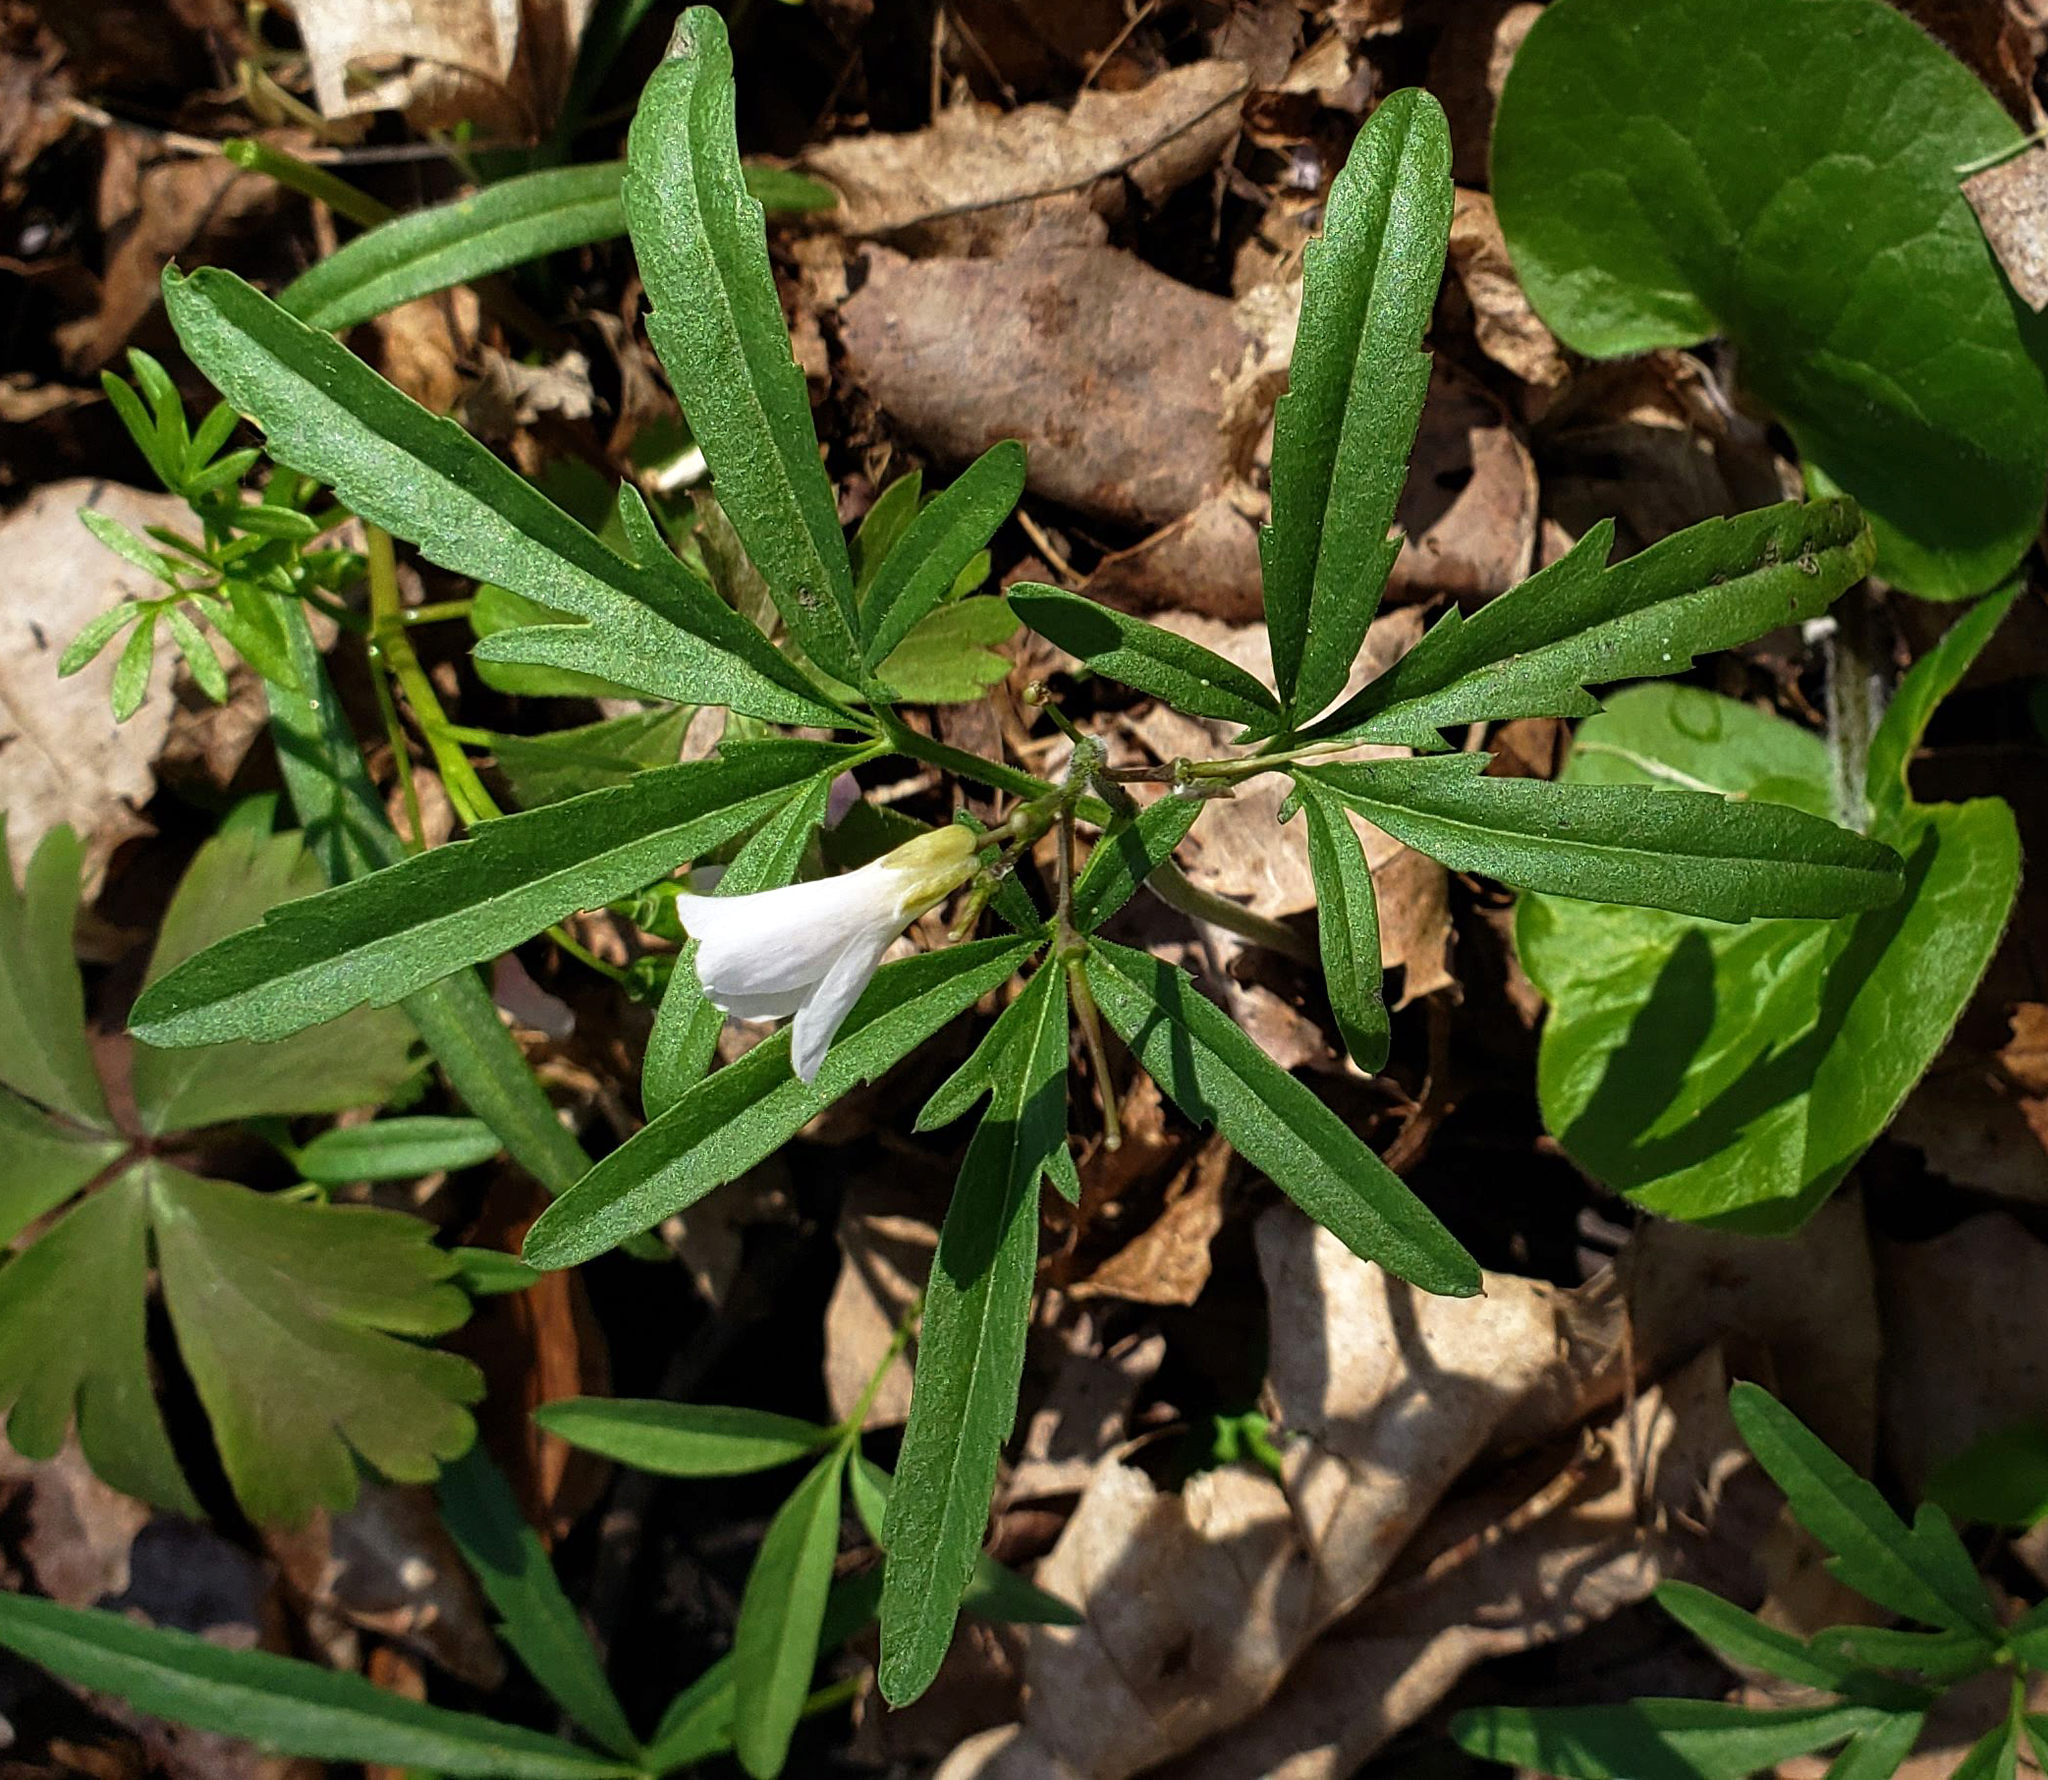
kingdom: Plantae
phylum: Tracheophyta
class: Magnoliopsida
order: Brassicales
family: Brassicaceae
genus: Cardamine
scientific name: Cardamine concatenata
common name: Cut-leaf toothcup
